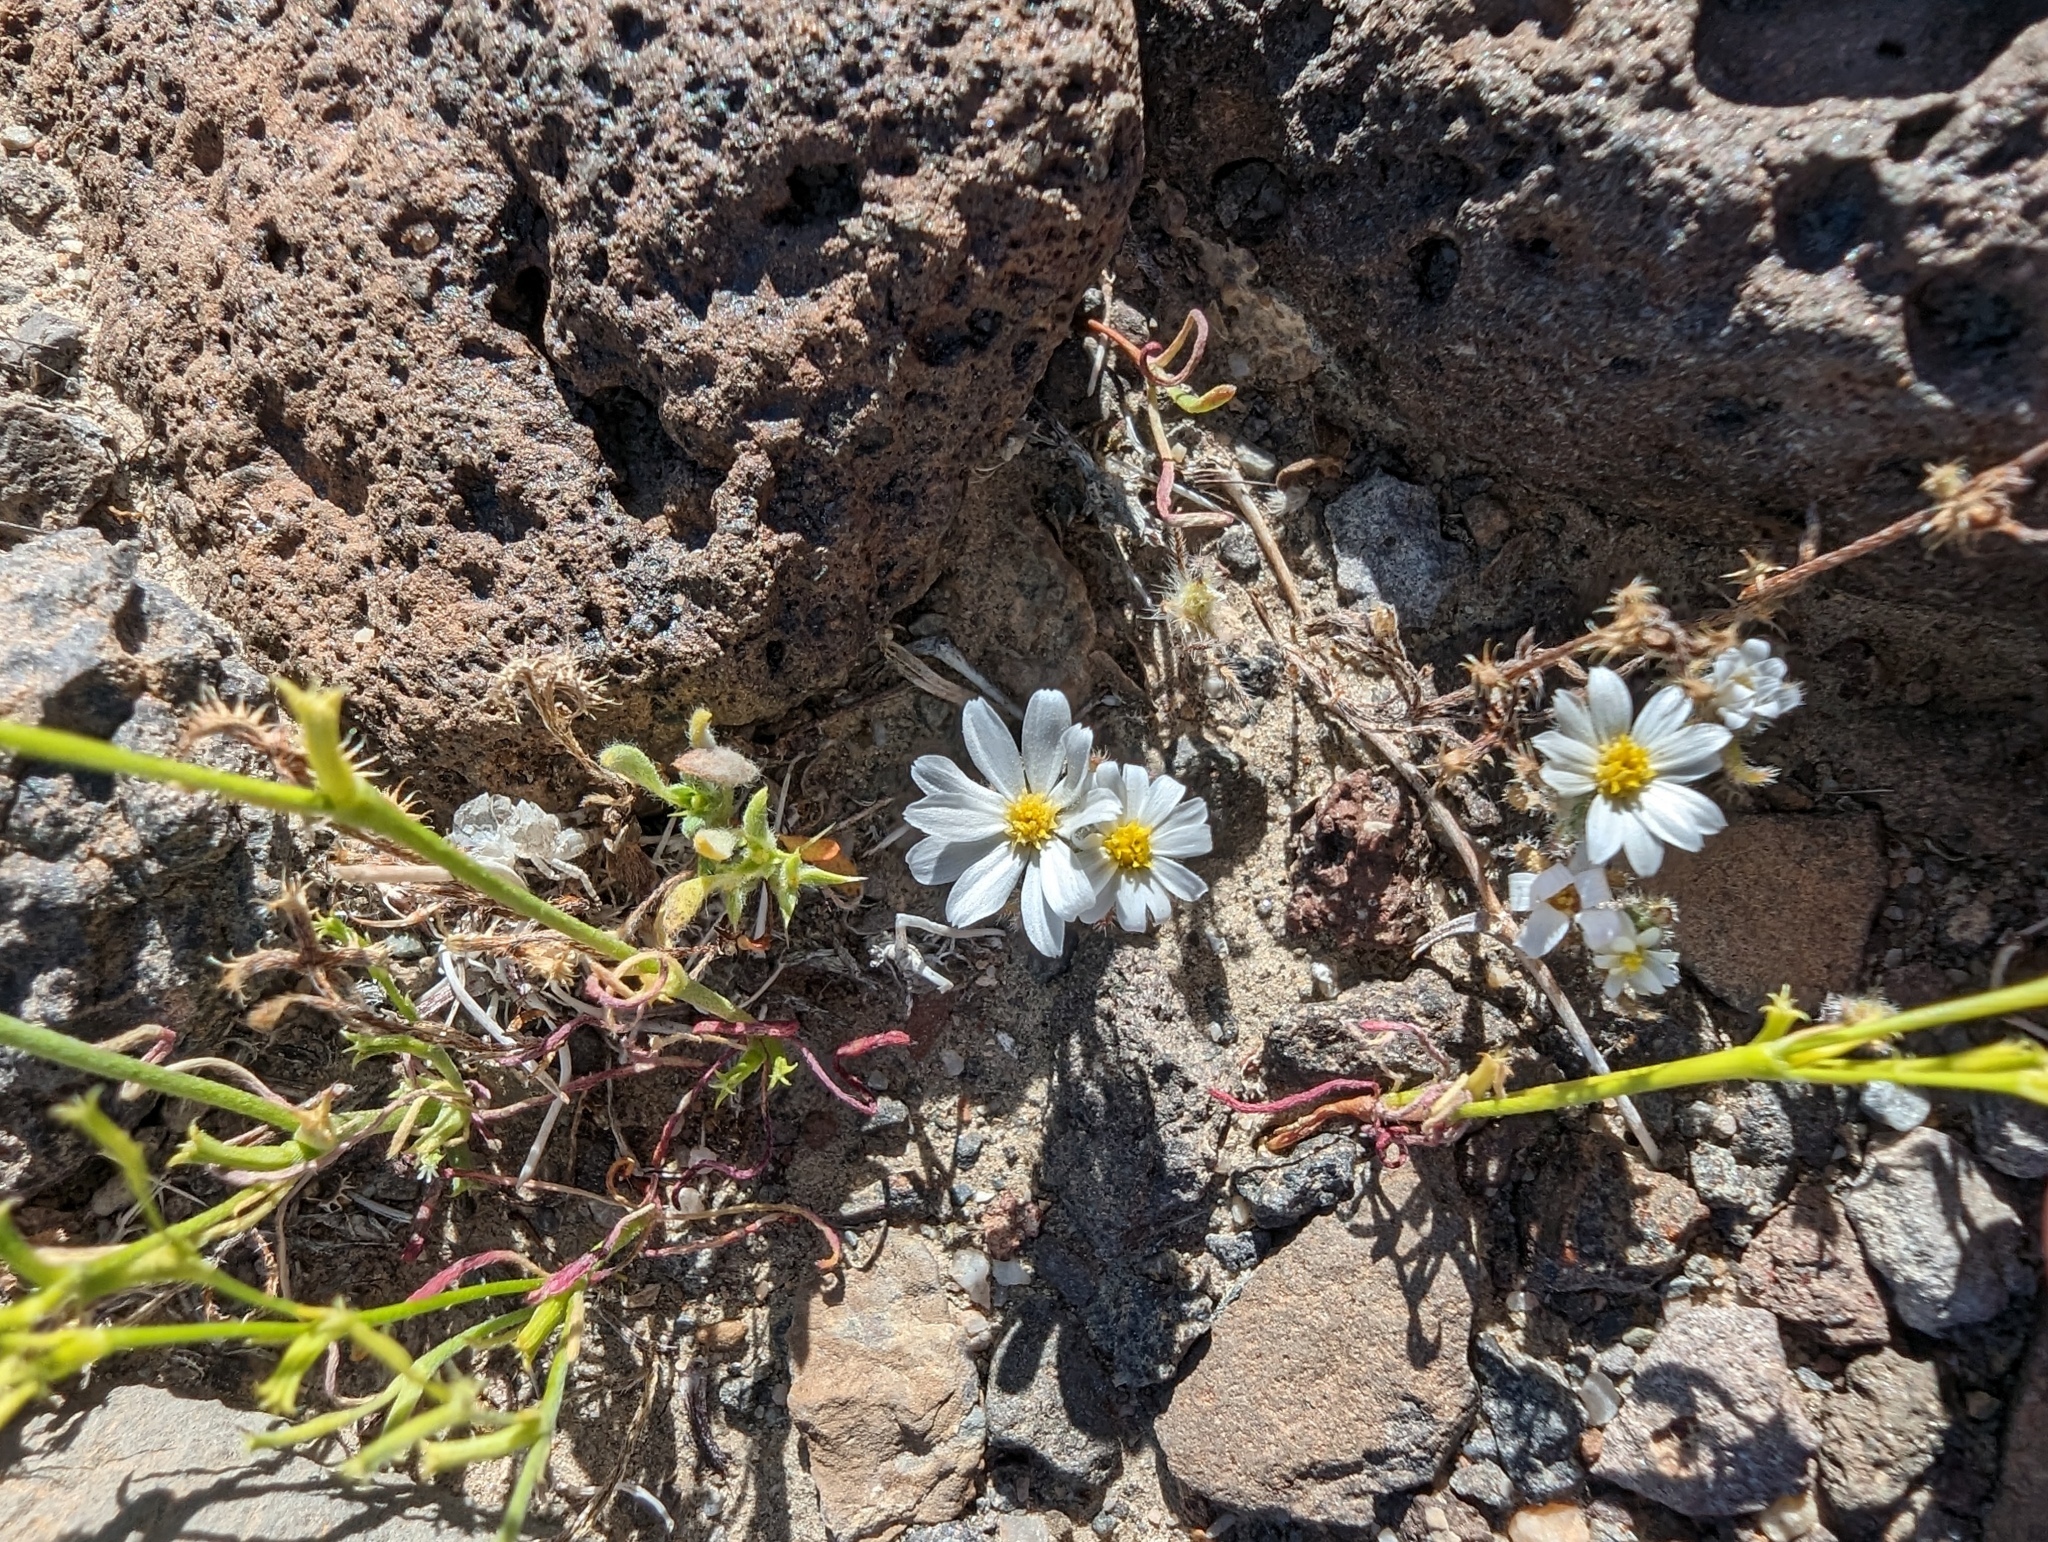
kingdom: Plantae
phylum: Tracheophyta
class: Magnoliopsida
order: Asterales
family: Asteraceae
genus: Monoptilon
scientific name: Monoptilon bellioides
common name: Bristly desertstar
